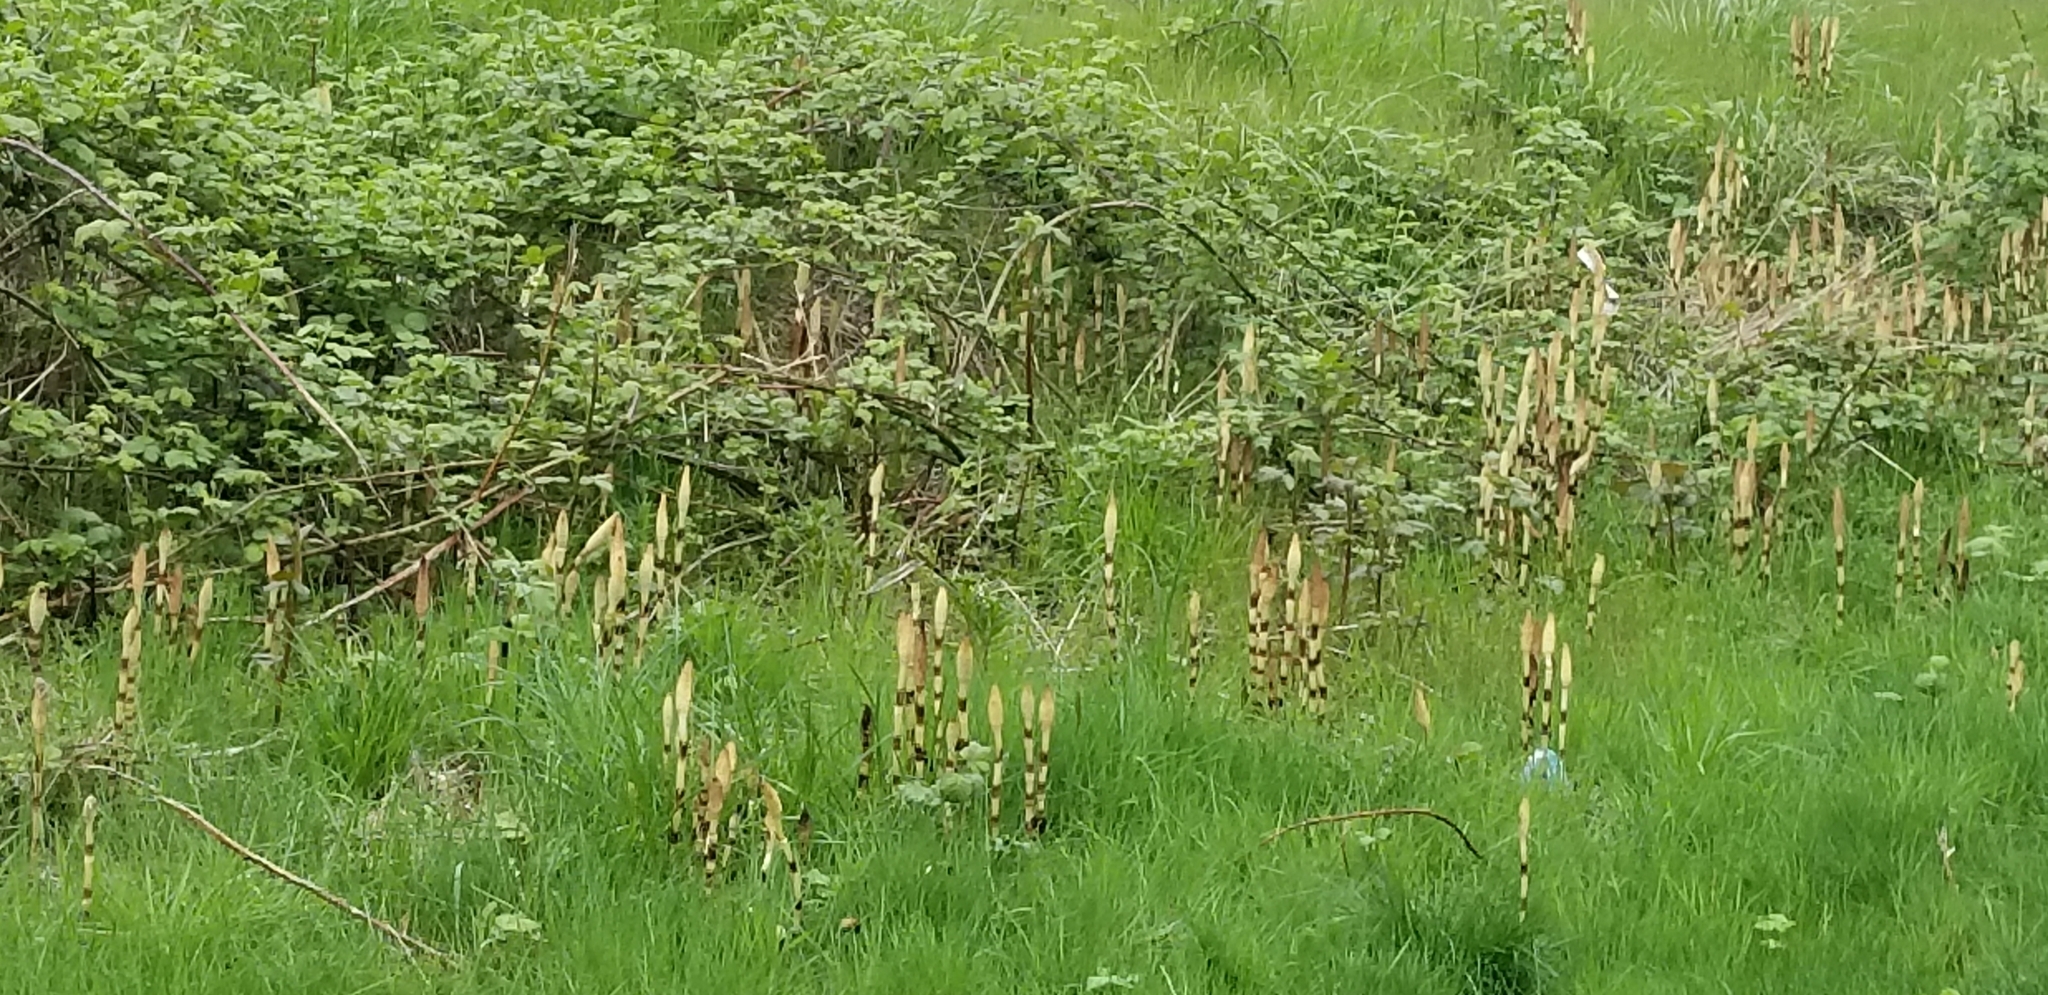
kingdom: Plantae
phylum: Tracheophyta
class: Polypodiopsida
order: Equisetales
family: Equisetaceae
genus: Equisetum
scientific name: Equisetum braunii
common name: Braun's horsetail
